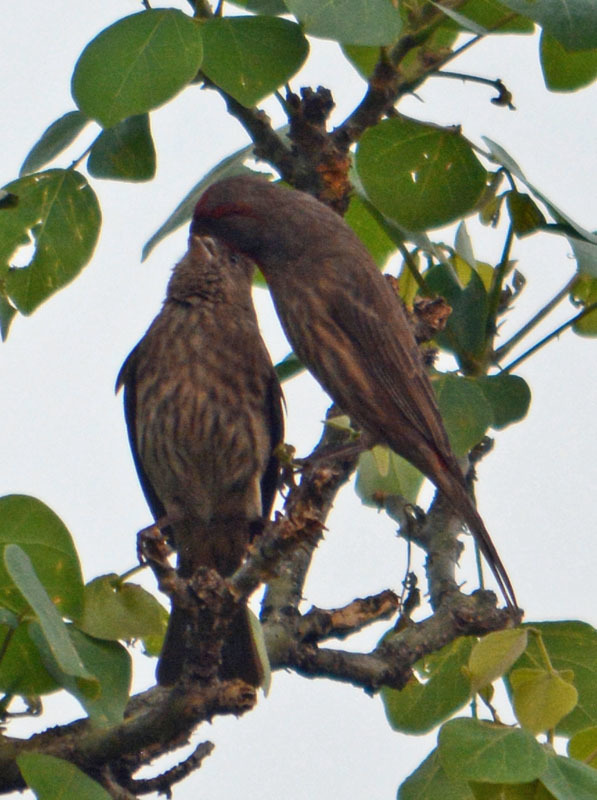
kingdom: Animalia
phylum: Chordata
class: Aves
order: Passeriformes
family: Fringillidae
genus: Haemorhous
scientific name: Haemorhous mexicanus
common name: House finch
